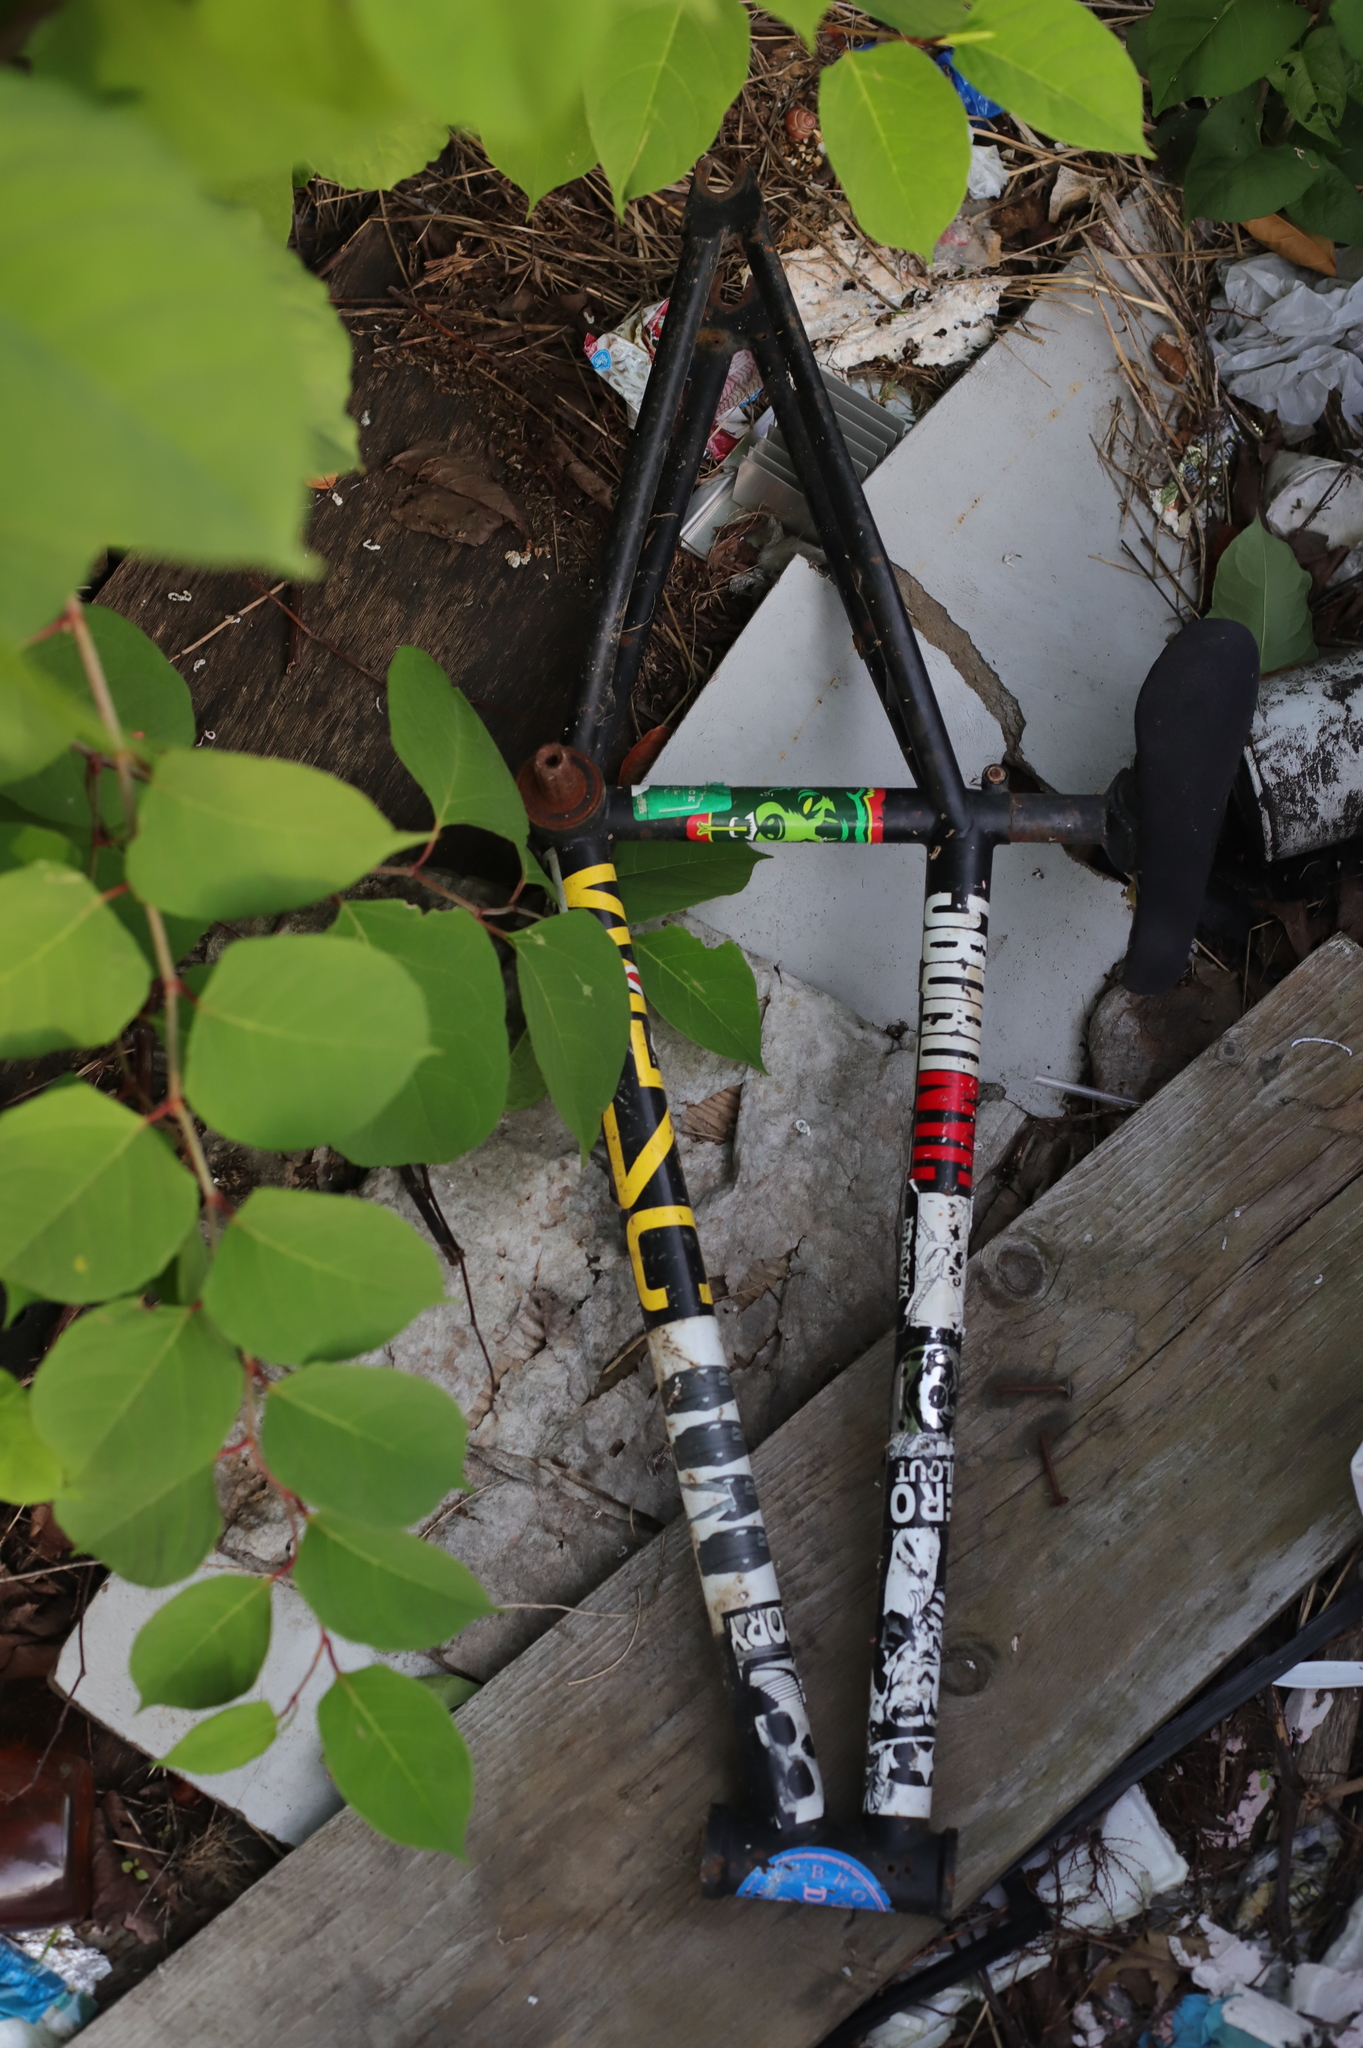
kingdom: Plantae
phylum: Tracheophyta
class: Magnoliopsida
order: Caryophyllales
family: Polygonaceae
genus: Reynoutria
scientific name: Reynoutria japonica
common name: Japanese knotweed
